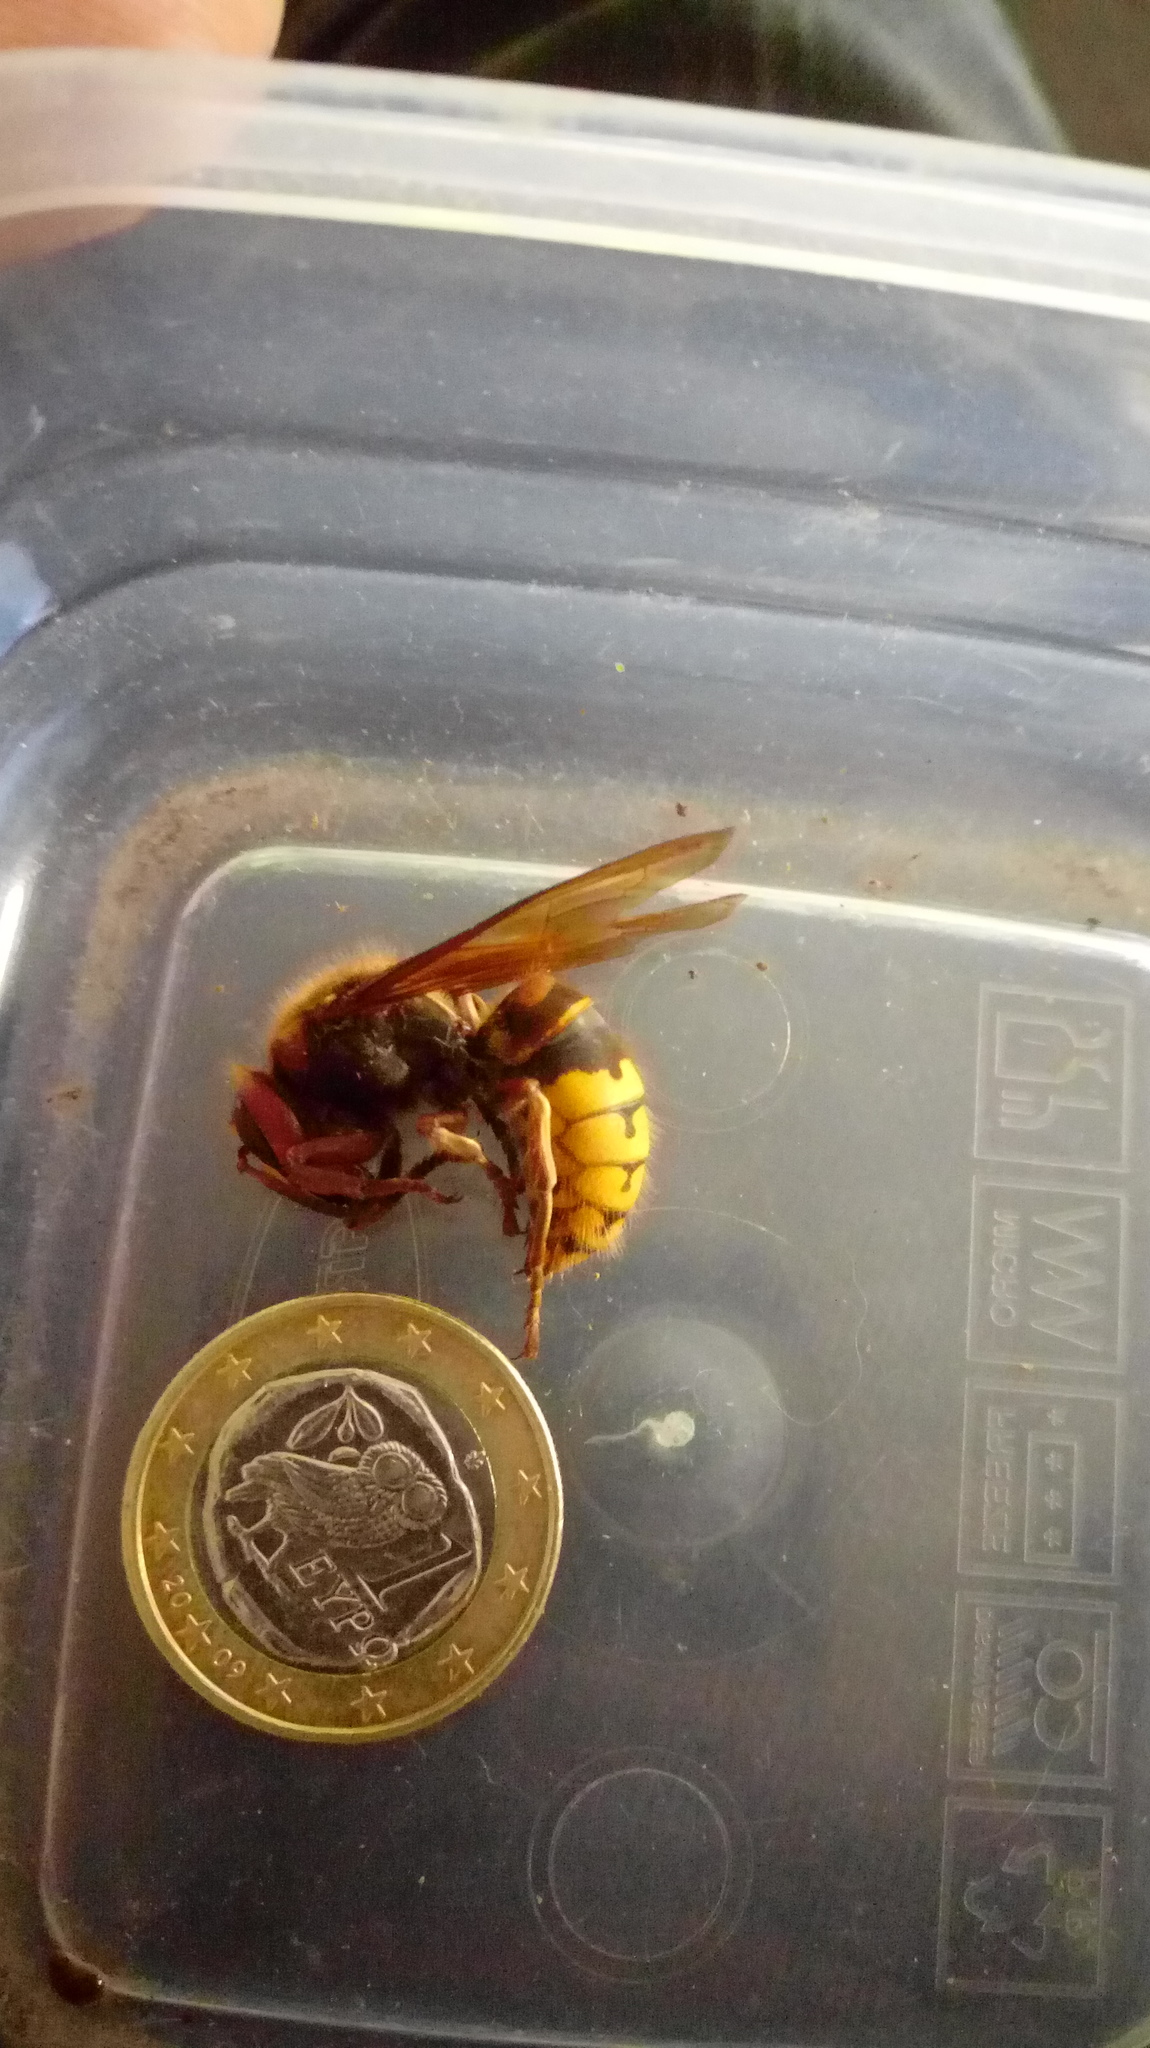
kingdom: Animalia
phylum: Arthropoda
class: Insecta
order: Hymenoptera
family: Vespidae
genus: Vespa
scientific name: Vespa crabro
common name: Hornet
